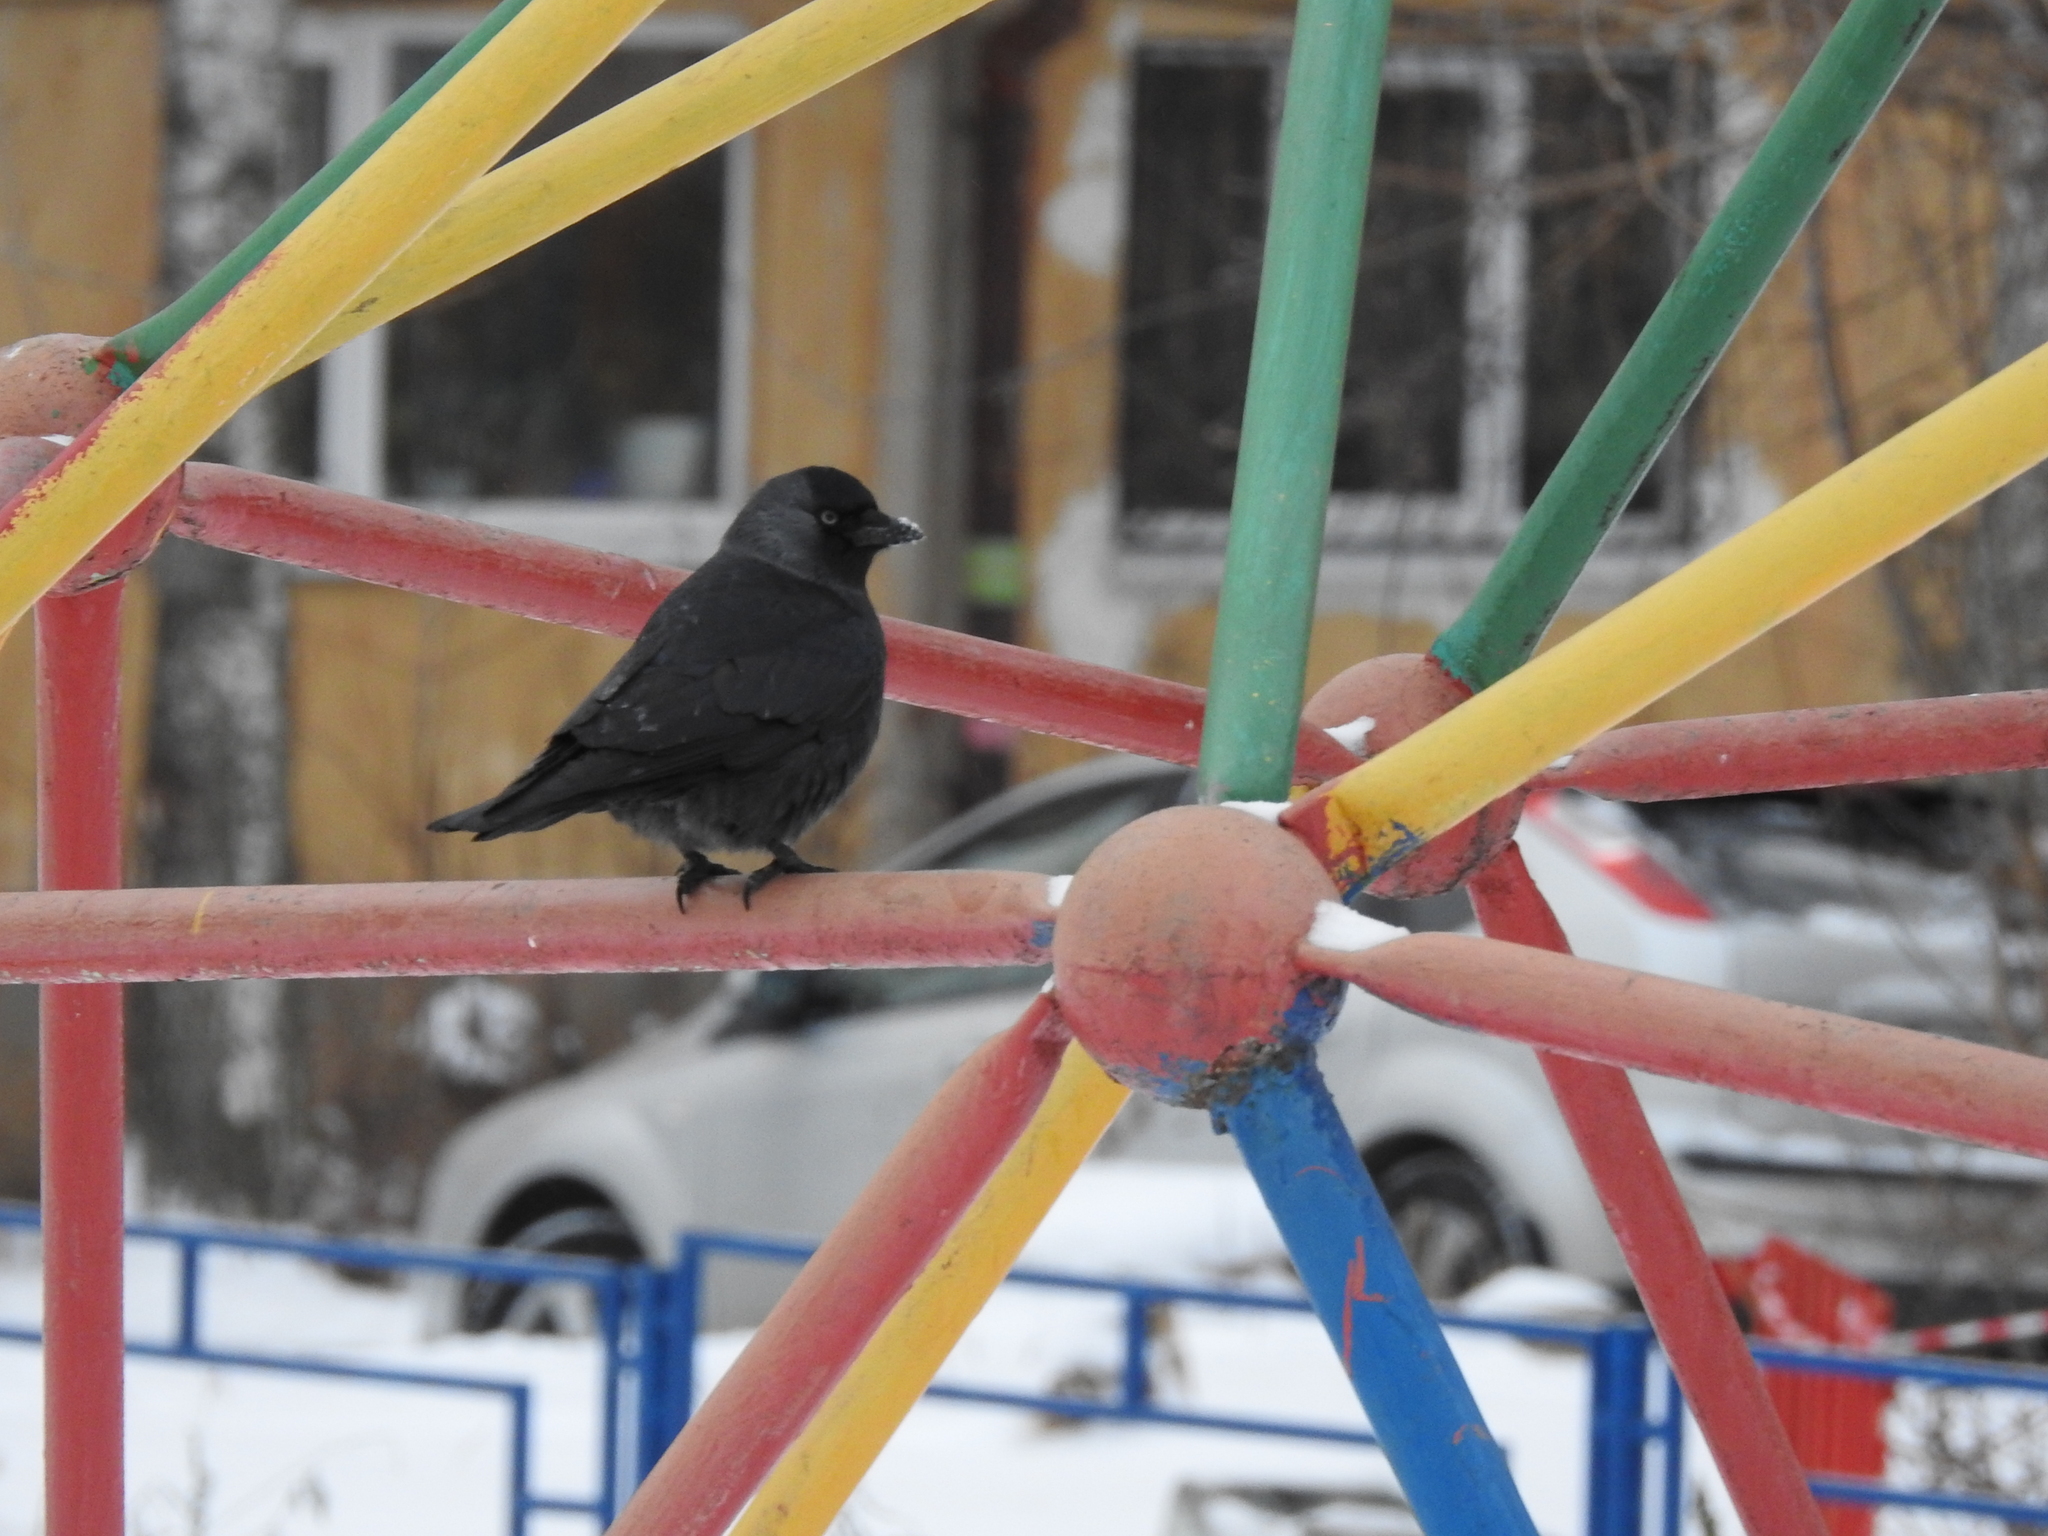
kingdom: Animalia
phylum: Chordata
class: Aves
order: Passeriformes
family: Corvidae
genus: Coloeus
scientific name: Coloeus monedula
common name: Western jackdaw
